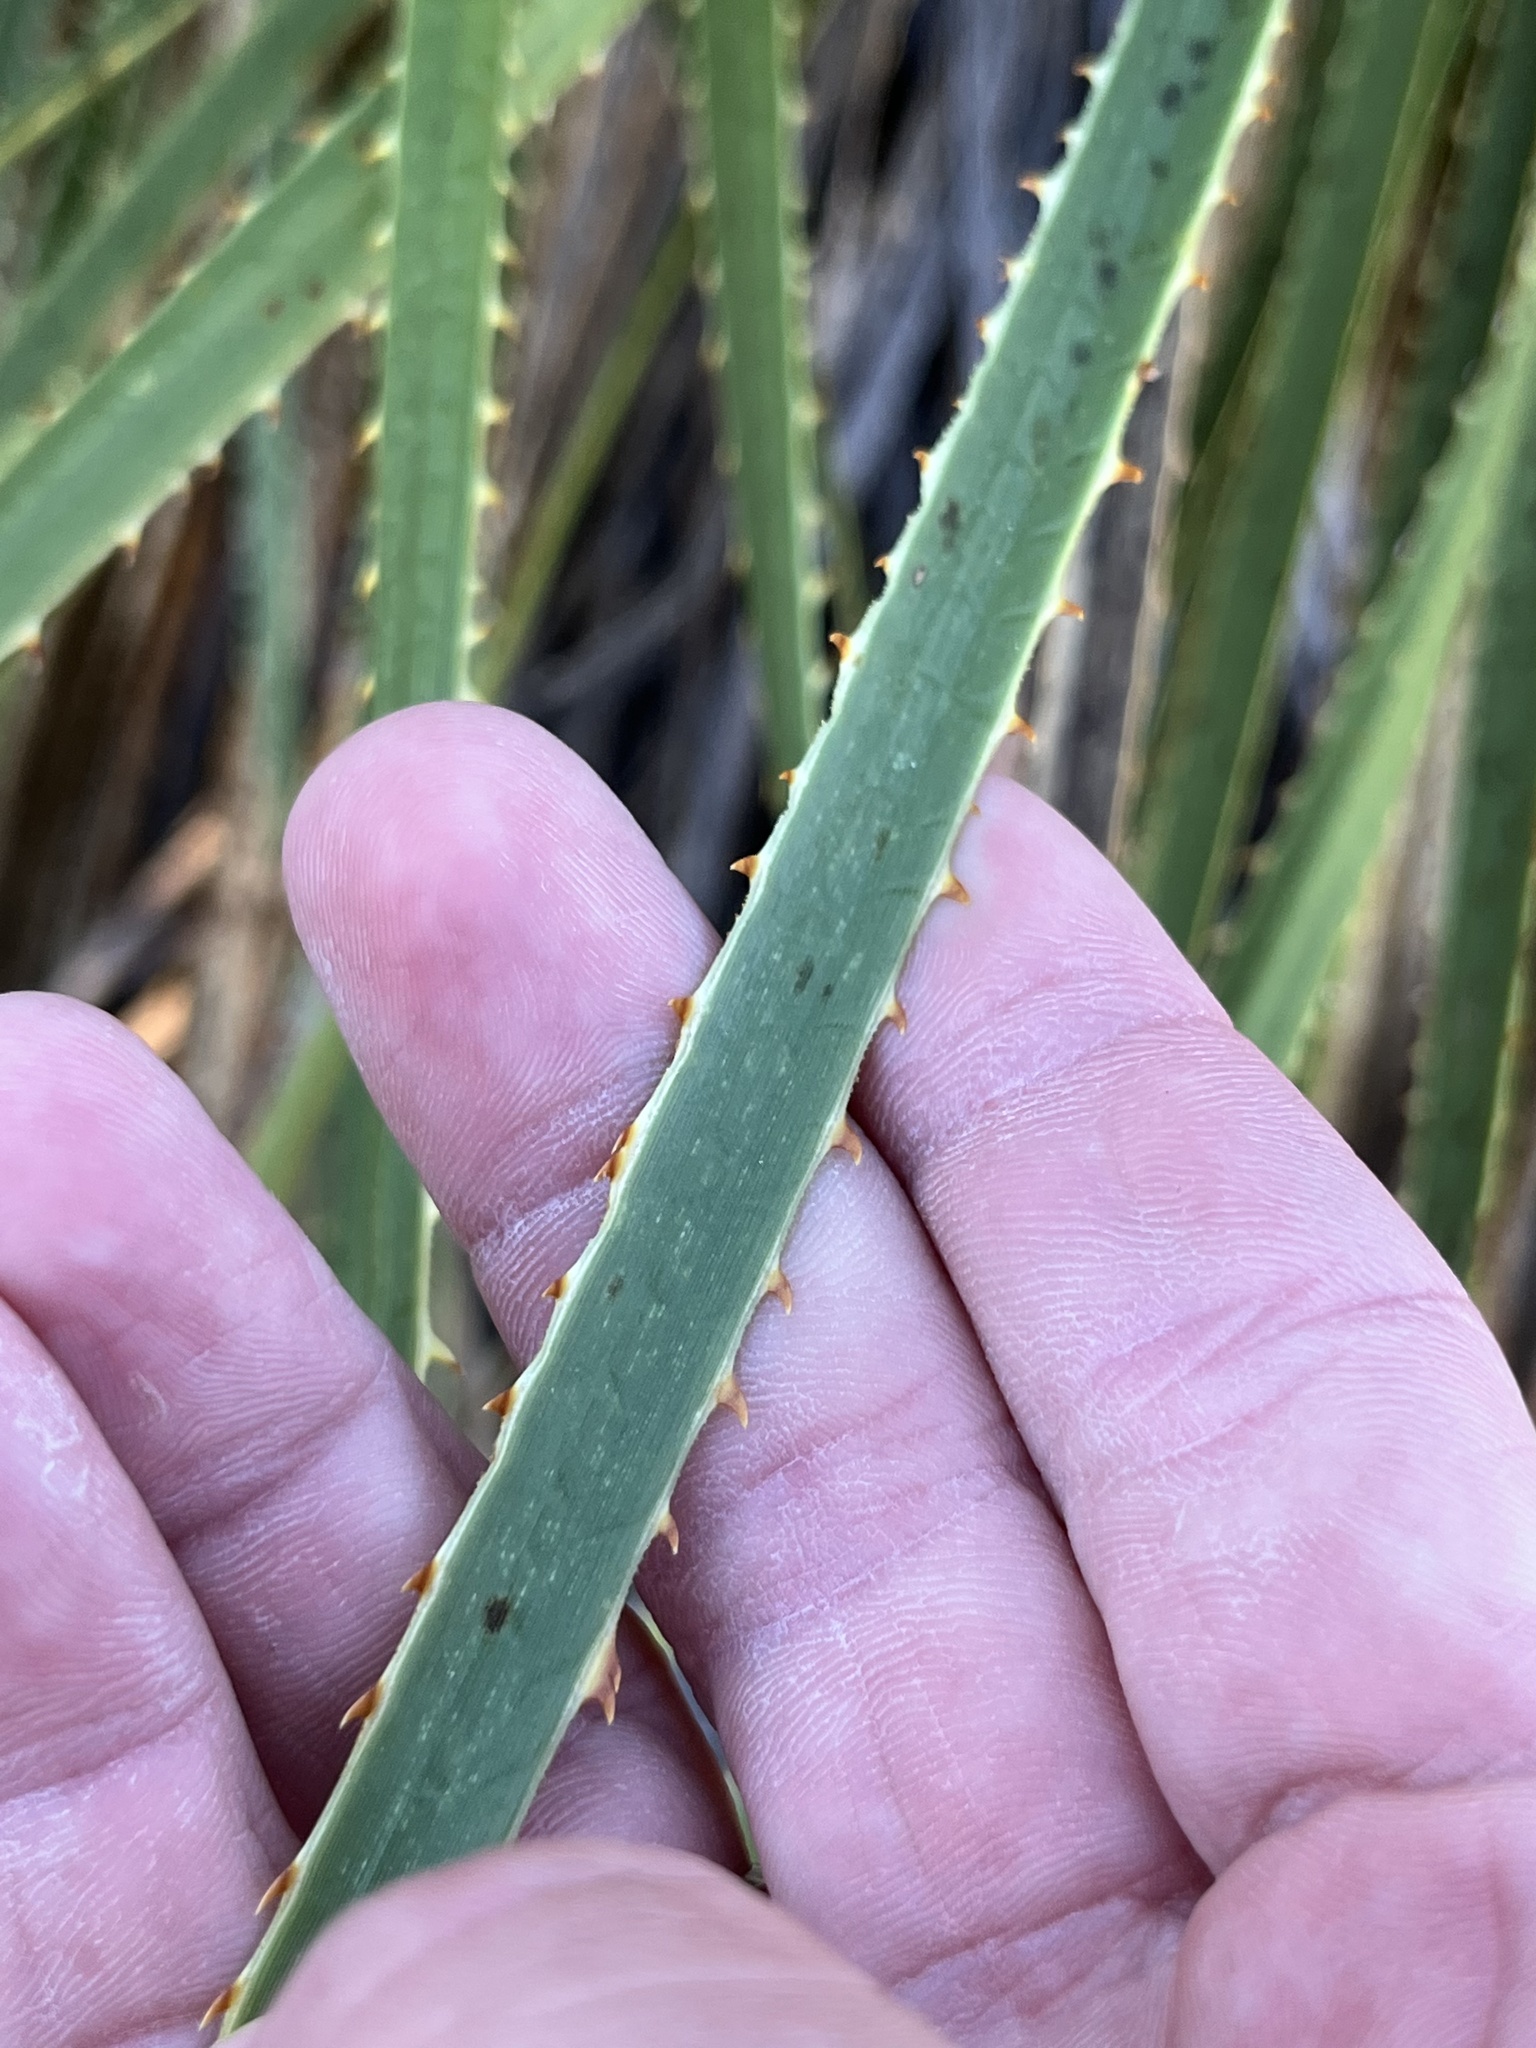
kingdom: Plantae
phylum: Tracheophyta
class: Liliopsida
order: Asparagales
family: Asparagaceae
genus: Dasylirion
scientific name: Dasylirion texanum
